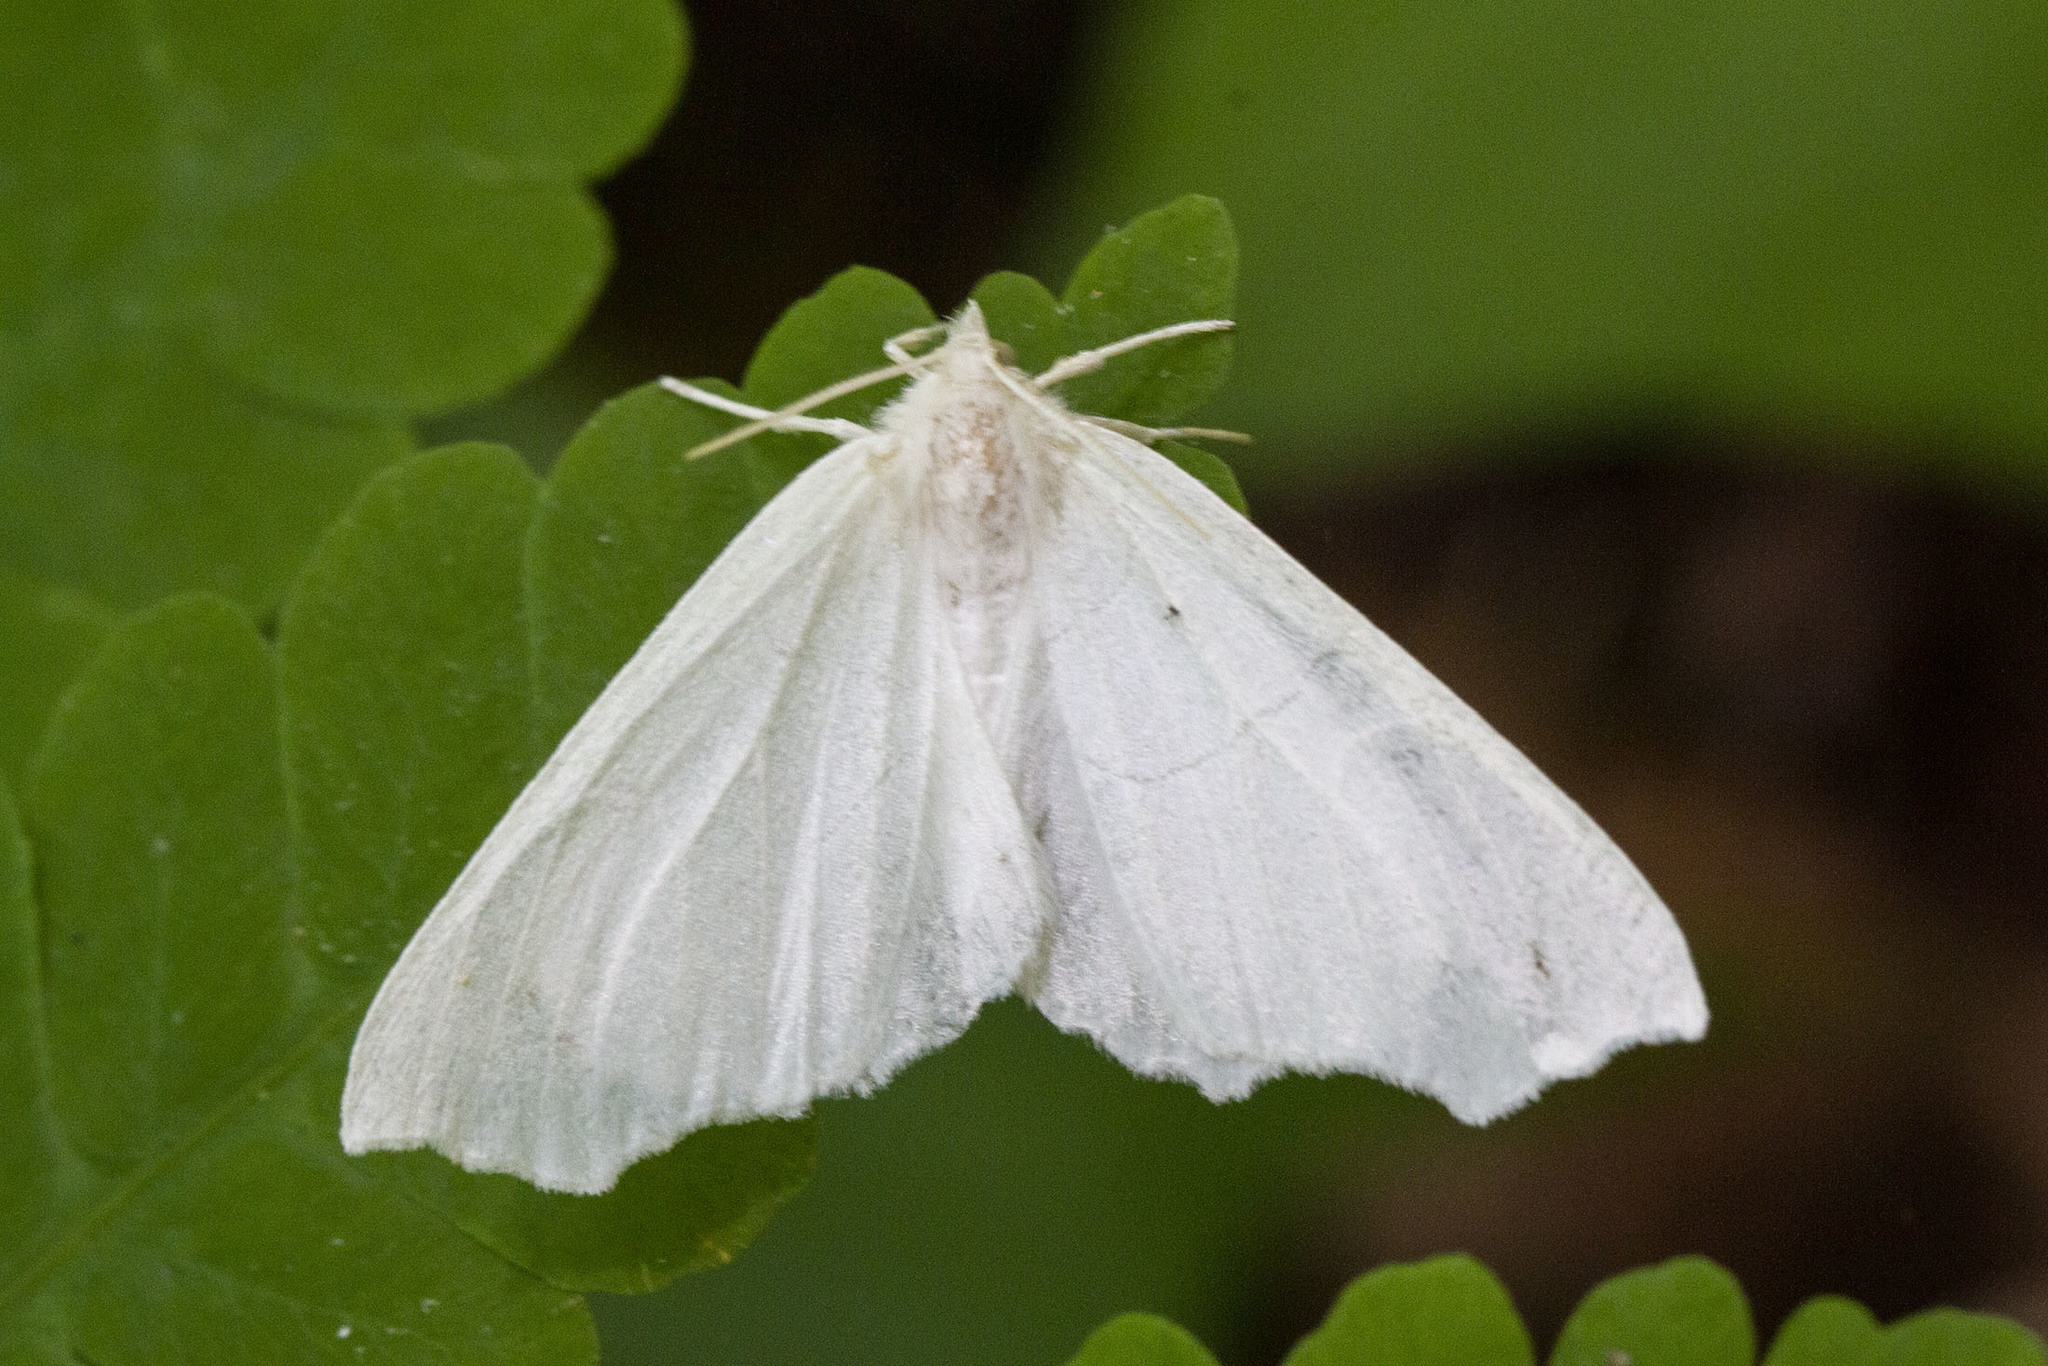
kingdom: Animalia
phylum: Arthropoda
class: Insecta
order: Lepidoptera
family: Geometridae
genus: Ennomos
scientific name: Ennomos subsignaria
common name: Elm spanworm
